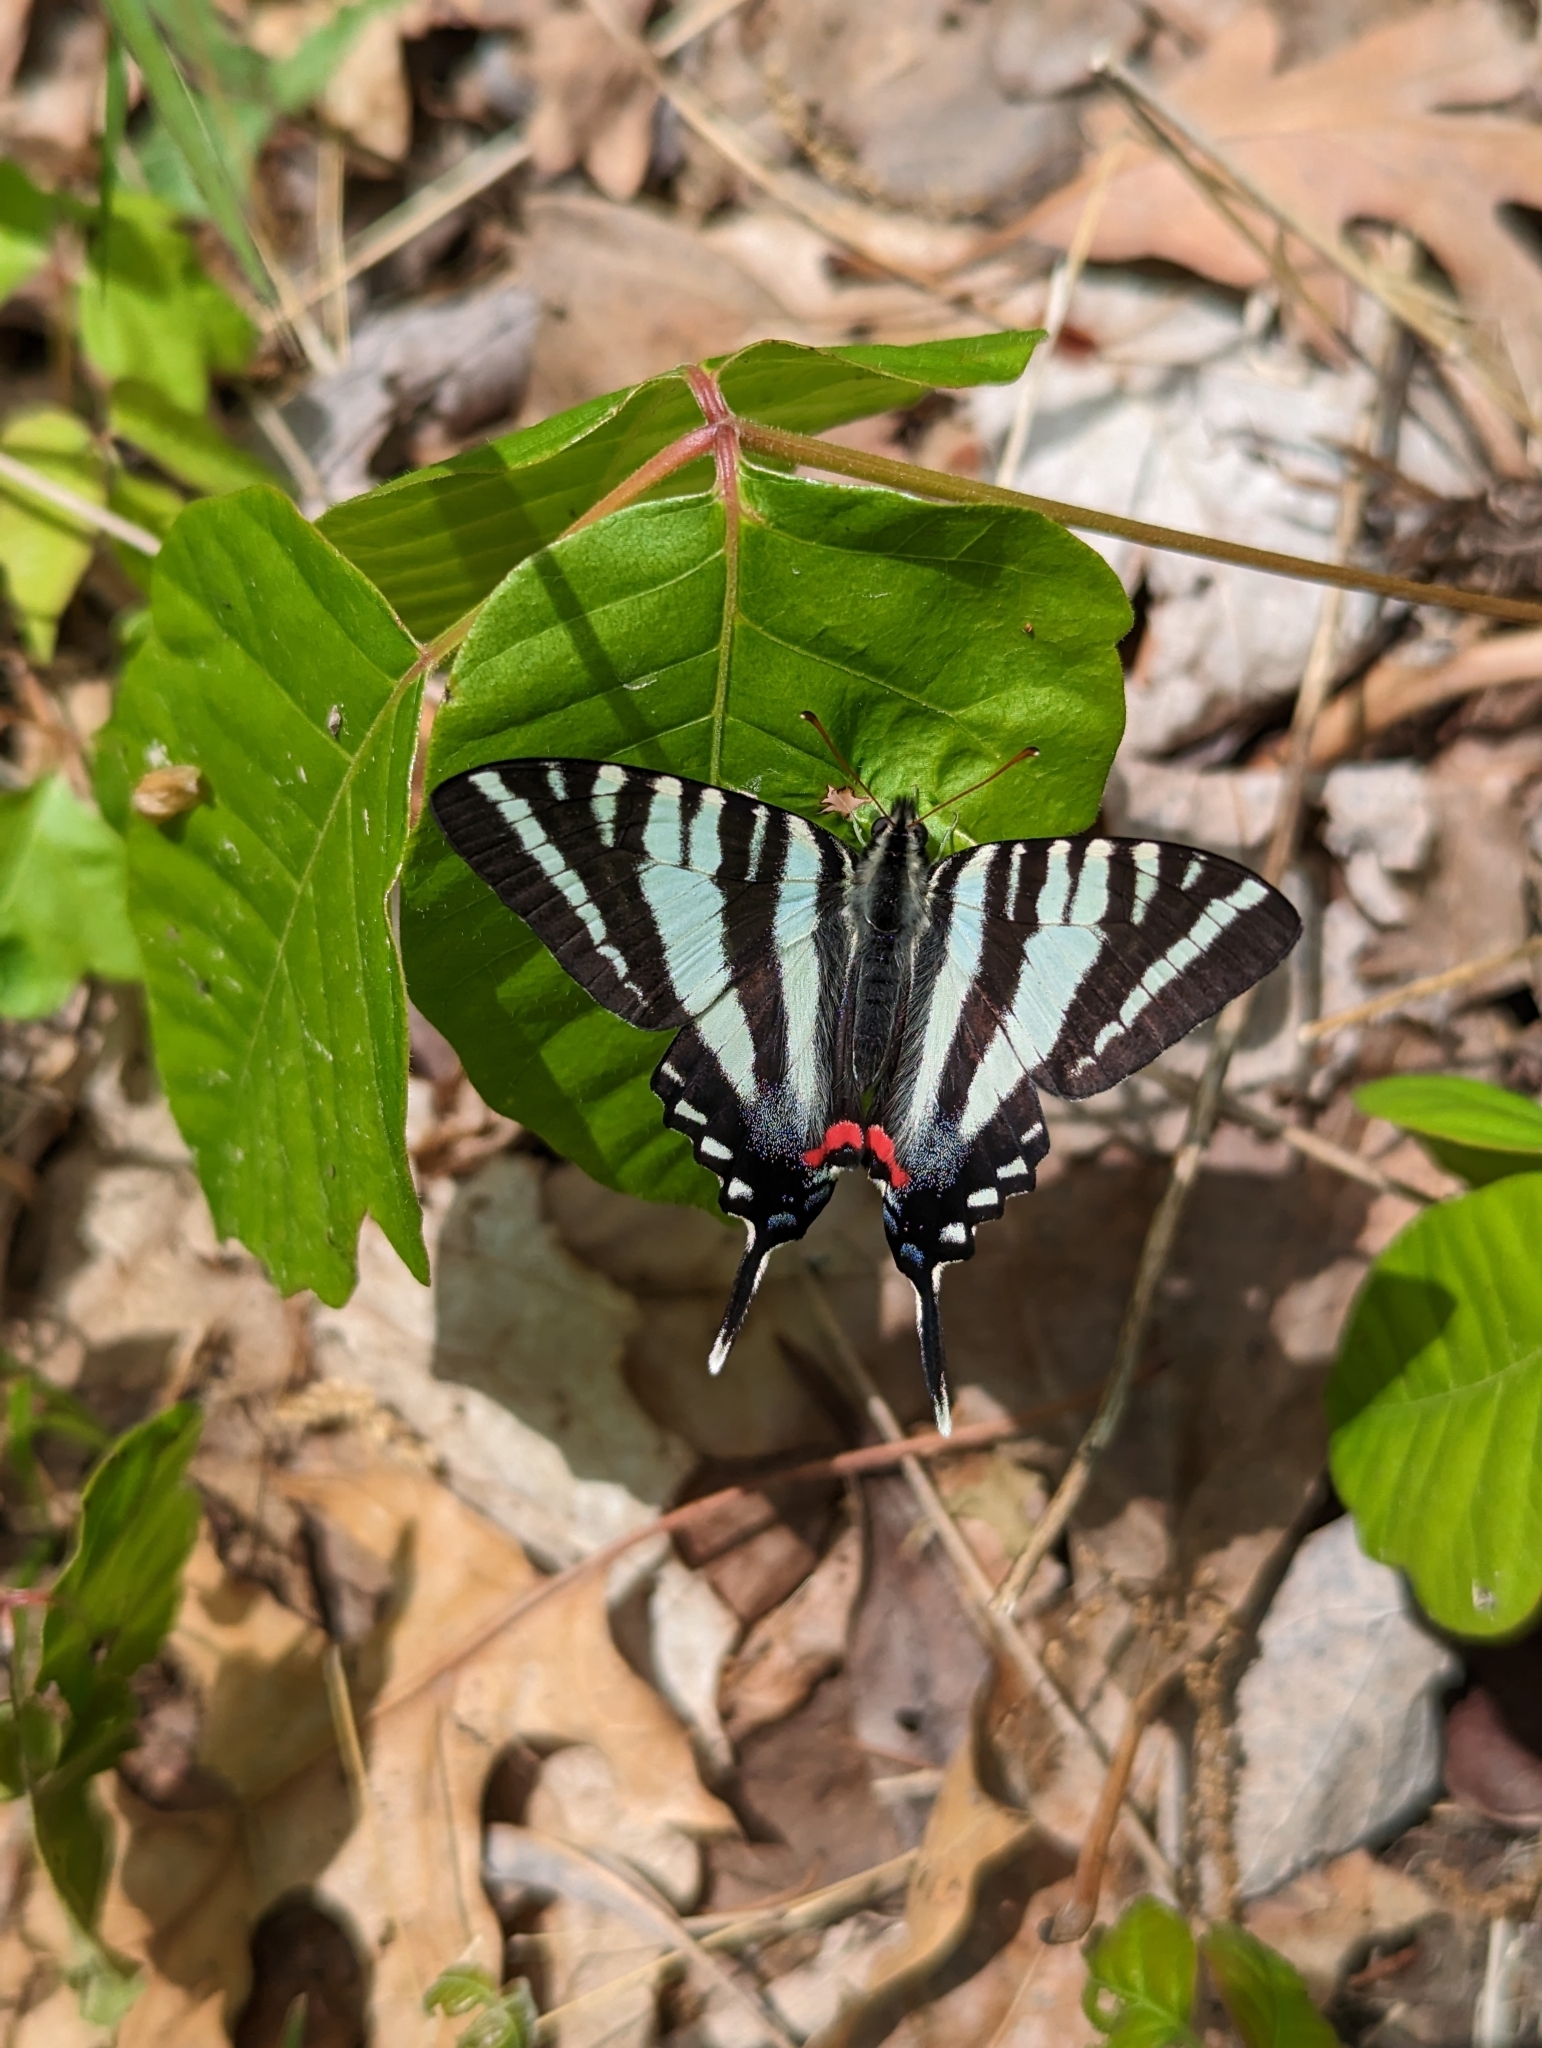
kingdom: Animalia
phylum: Arthropoda
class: Insecta
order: Lepidoptera
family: Papilionidae
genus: Protographium
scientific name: Protographium marcellus
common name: Zebra swallowtail
